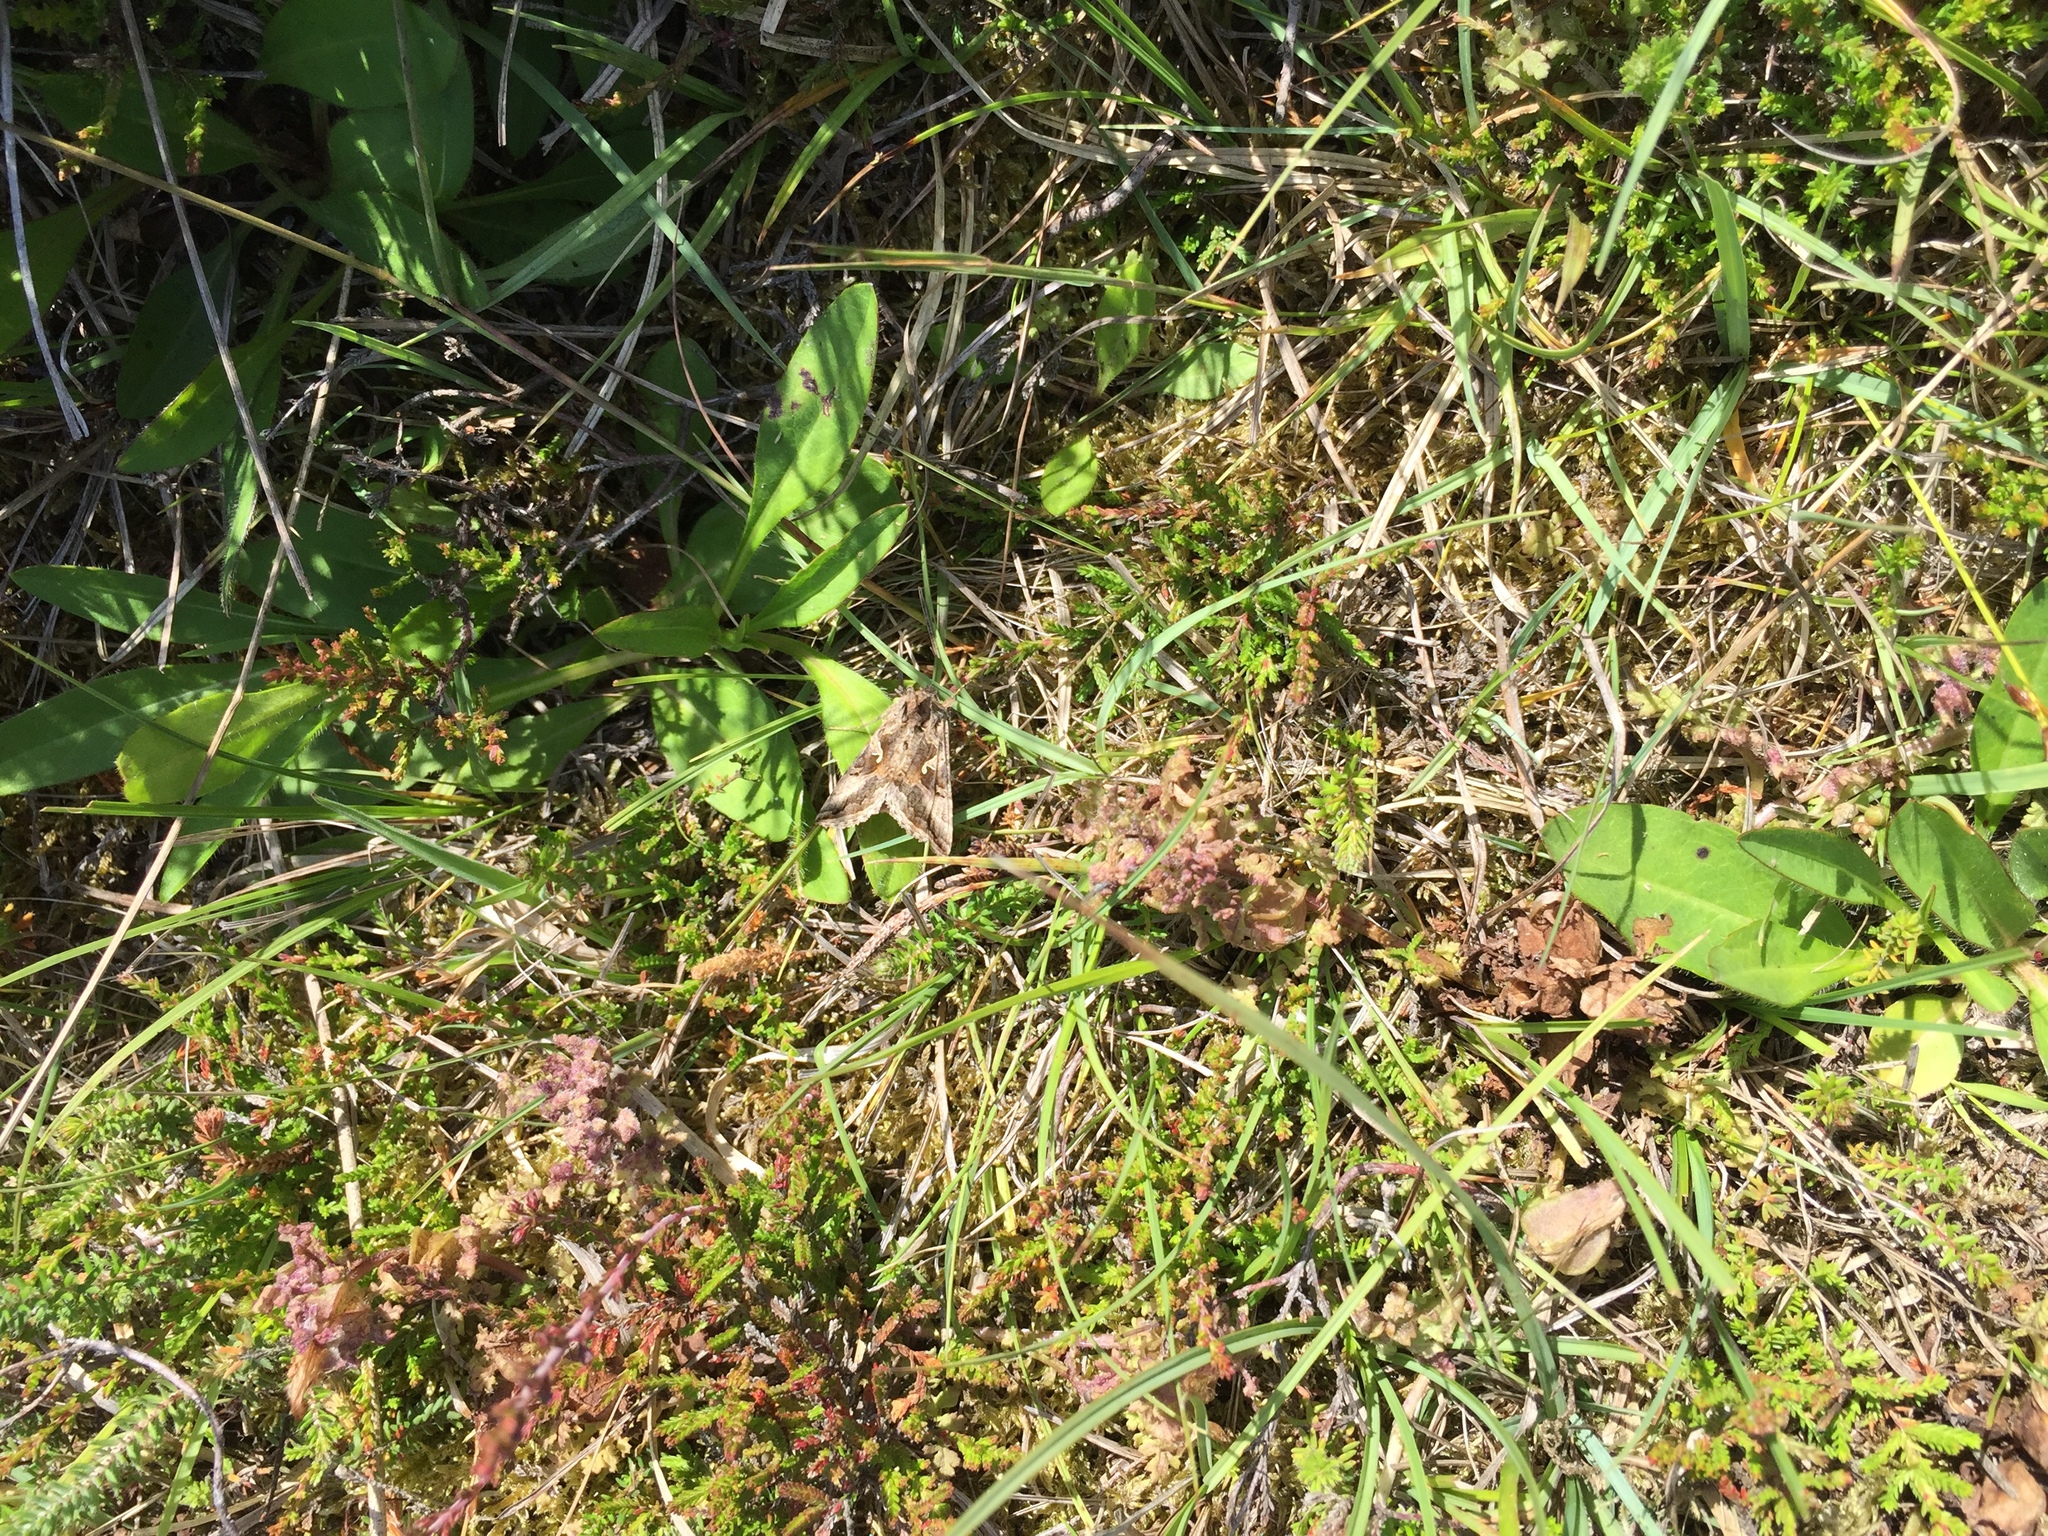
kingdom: Animalia
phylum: Arthropoda
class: Insecta
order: Lepidoptera
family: Noctuidae
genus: Autographa
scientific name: Autographa gamma
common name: Silver y
